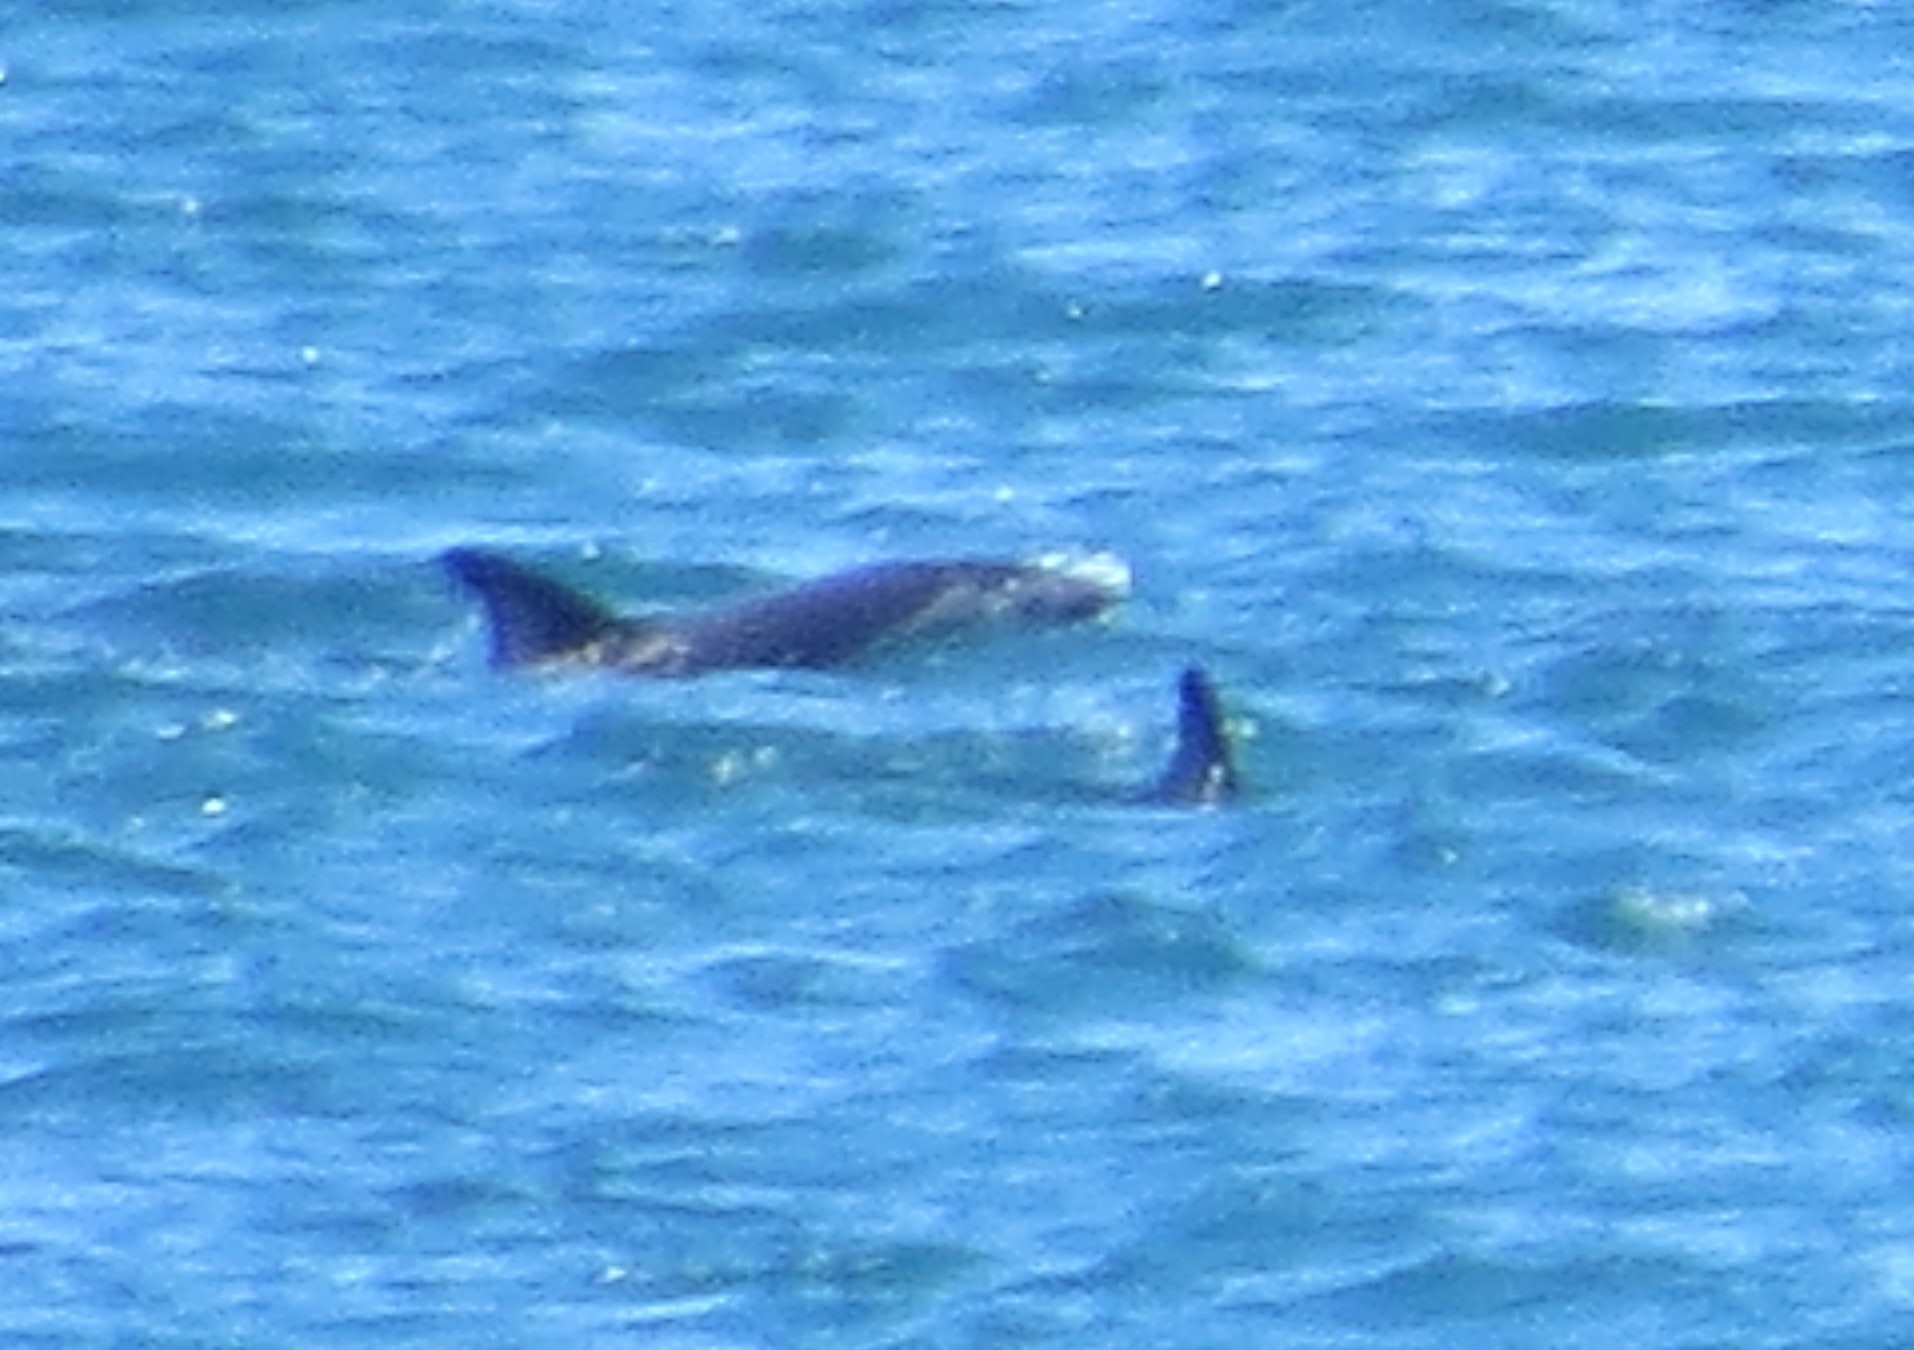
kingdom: Animalia
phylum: Chordata
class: Mammalia
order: Cetacea
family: Delphinidae
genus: Lagenorhynchus
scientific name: Lagenorhynchus obscurus
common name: Dusky dolphin
